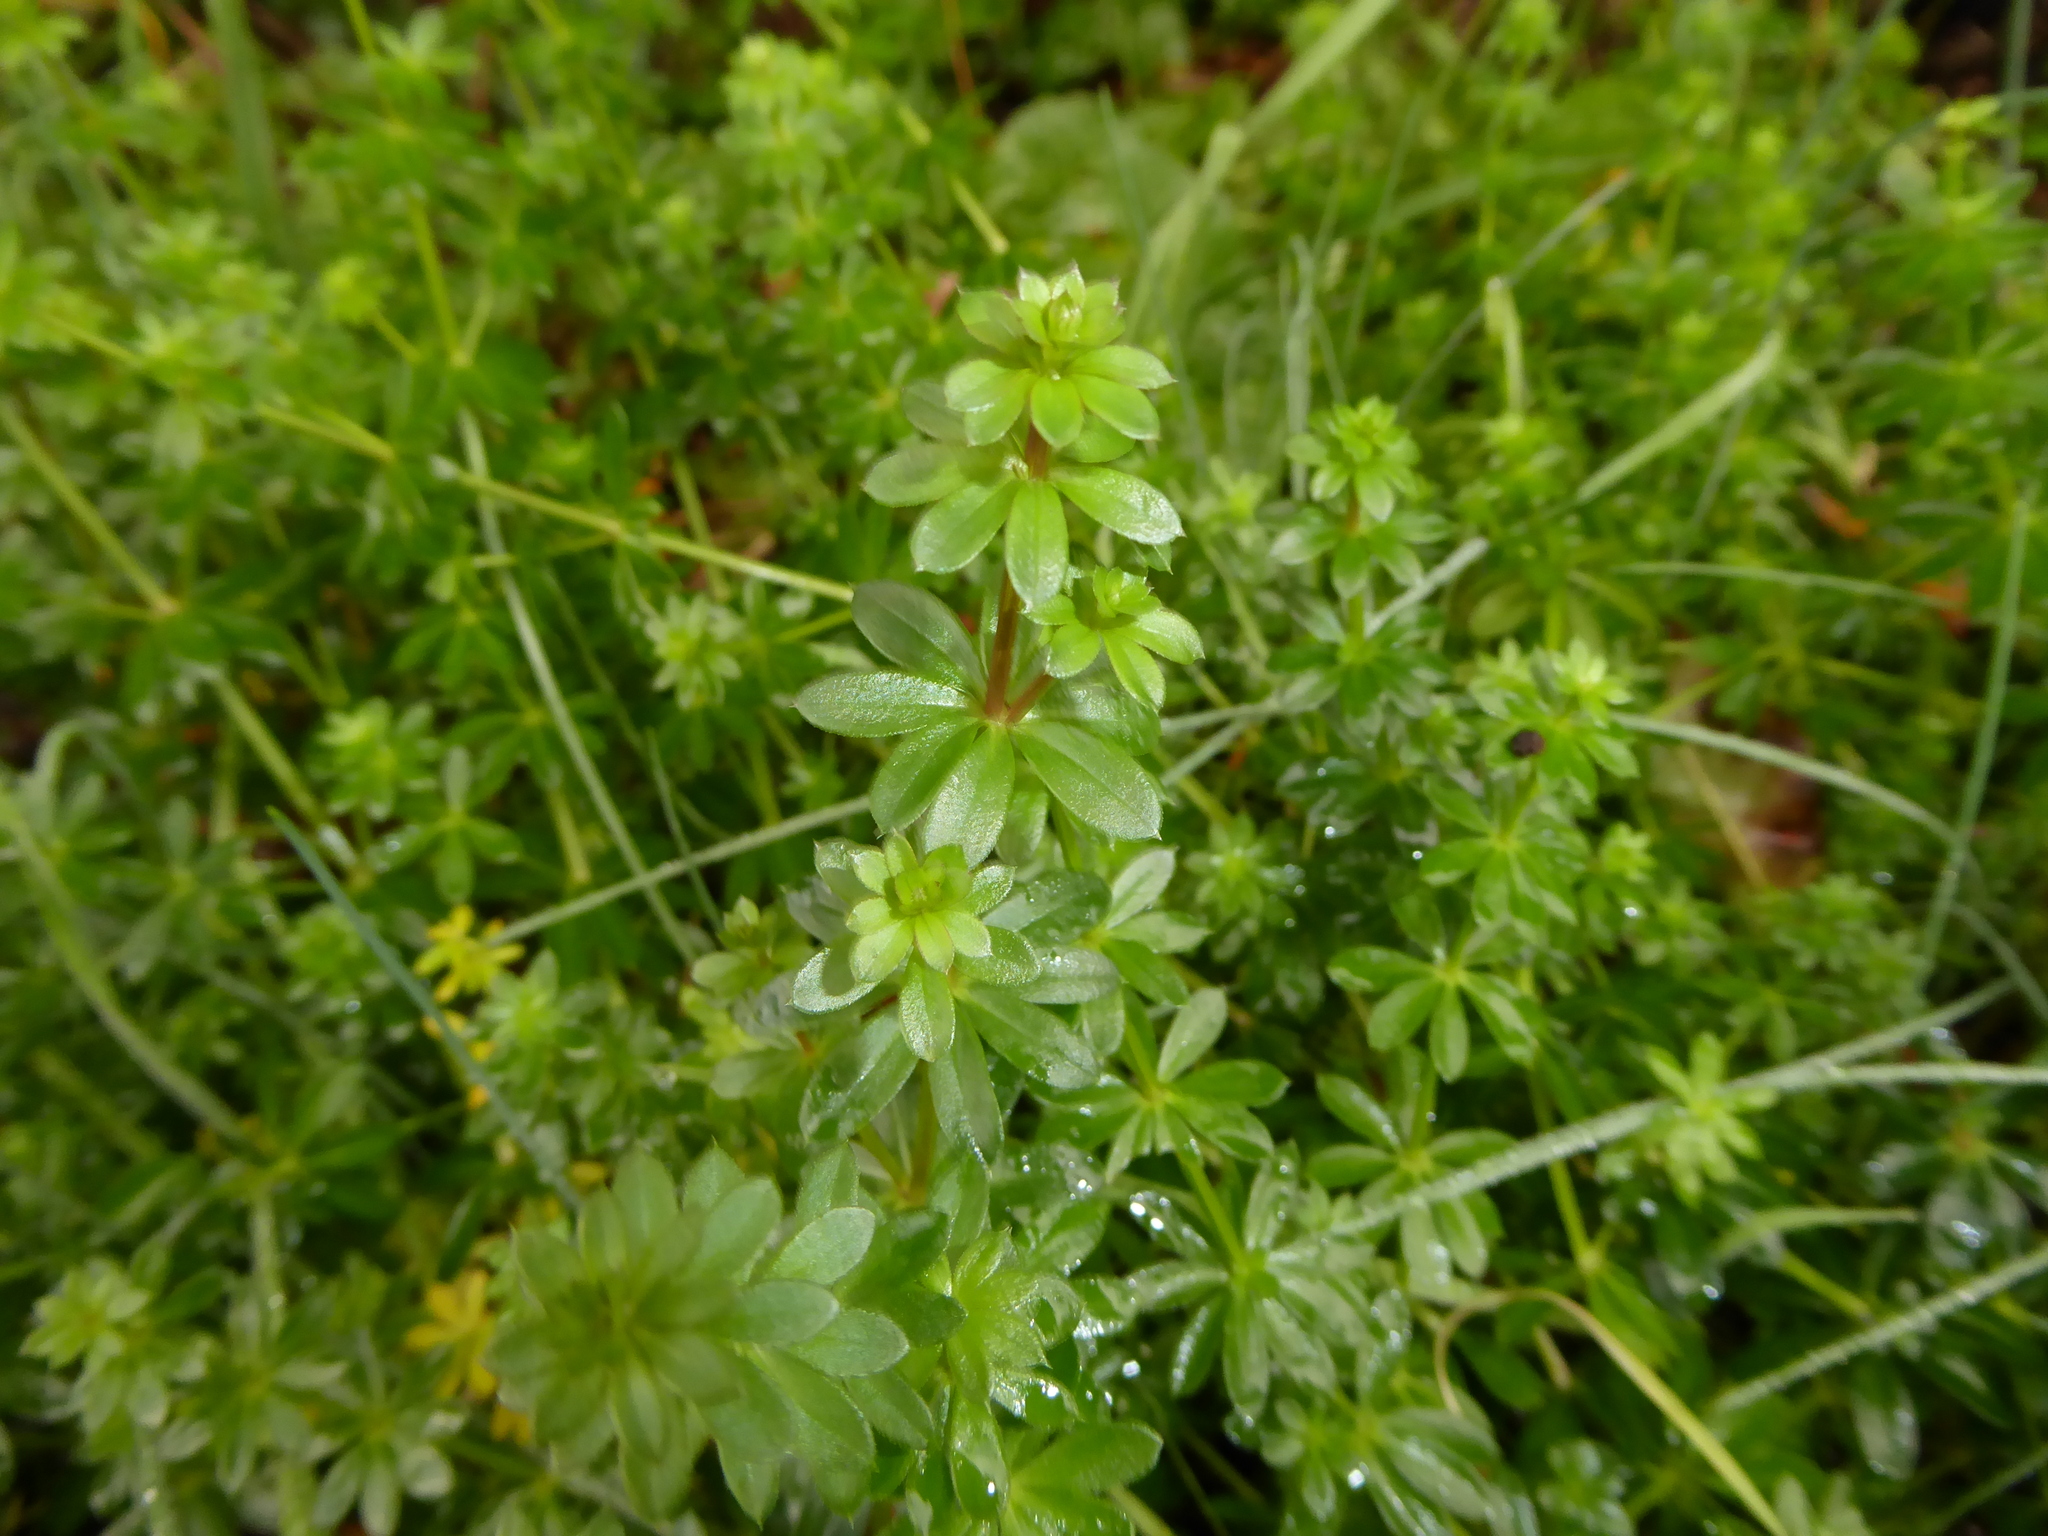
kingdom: Plantae
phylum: Tracheophyta
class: Magnoliopsida
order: Gentianales
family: Rubiaceae
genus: Galium
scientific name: Galium aparine
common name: Cleavers
